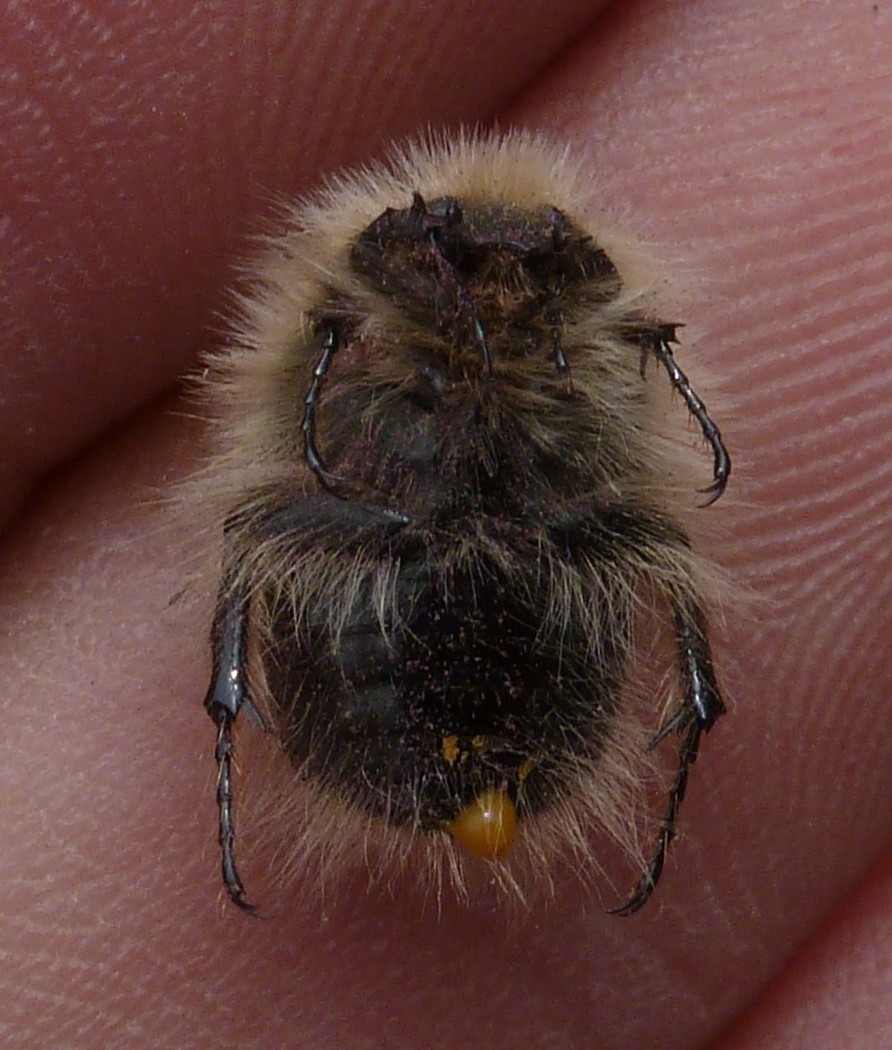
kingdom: Animalia
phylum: Arthropoda
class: Insecta
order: Coleoptera
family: Scarabaeidae
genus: Tropinota
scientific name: Tropinota hirta
